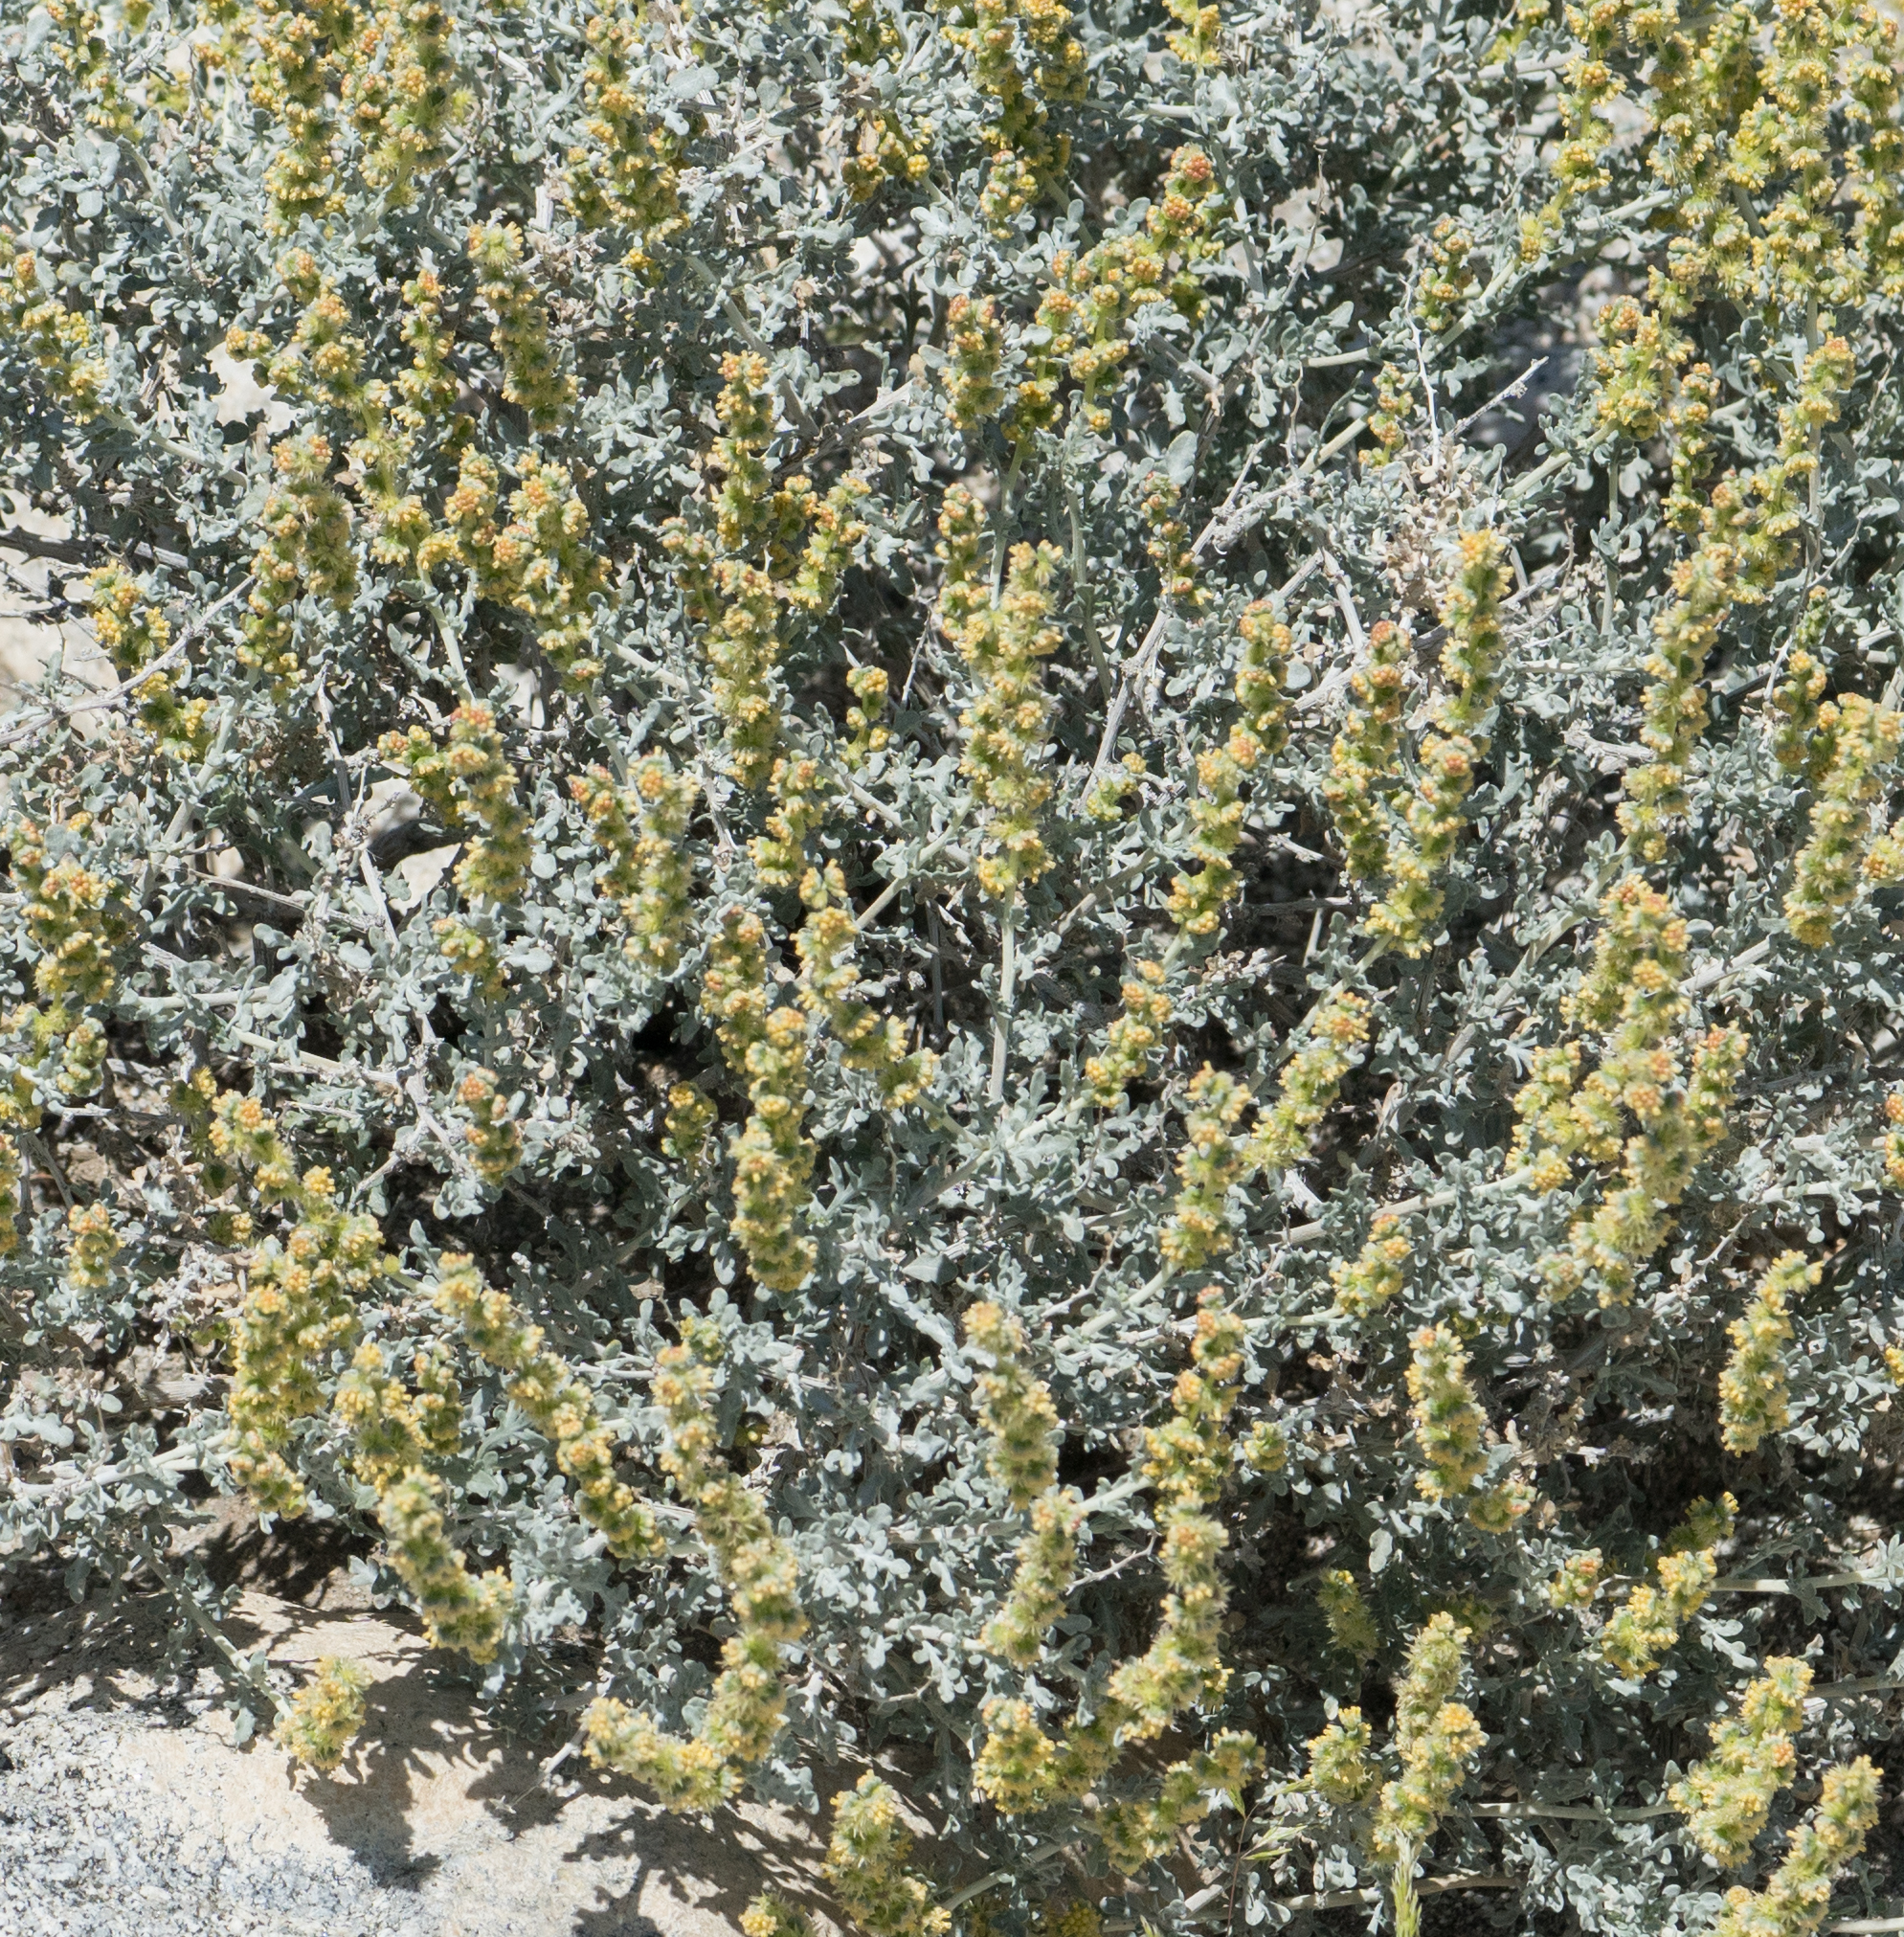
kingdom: Plantae
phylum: Tracheophyta
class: Magnoliopsida
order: Asterales
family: Asteraceae
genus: Ambrosia
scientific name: Ambrosia dumosa
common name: Bur-sage
